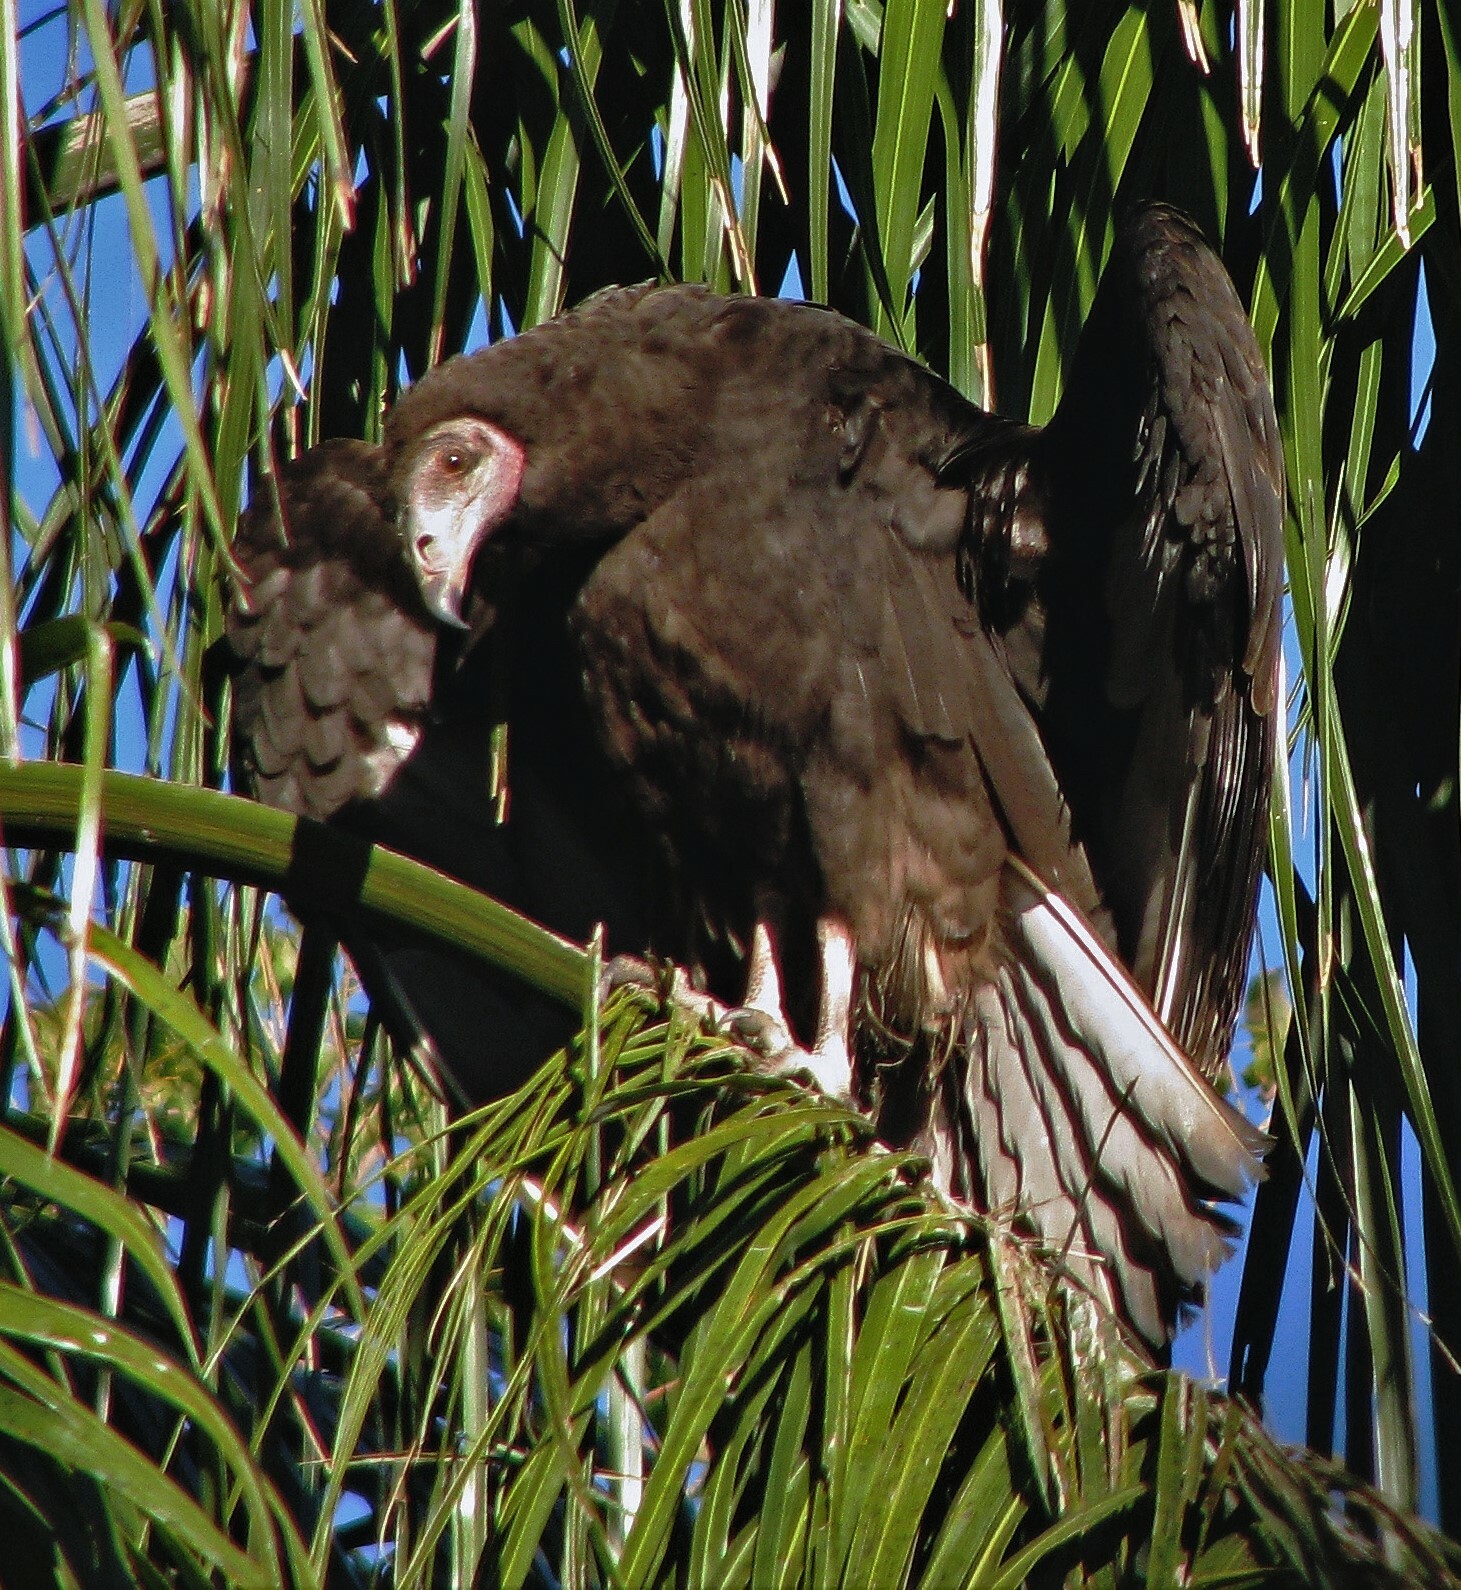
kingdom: Animalia
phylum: Chordata
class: Aves
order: Accipitriformes
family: Cathartidae
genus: Cathartes
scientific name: Cathartes burrovianus
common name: Lesser yellow-headed vulture
